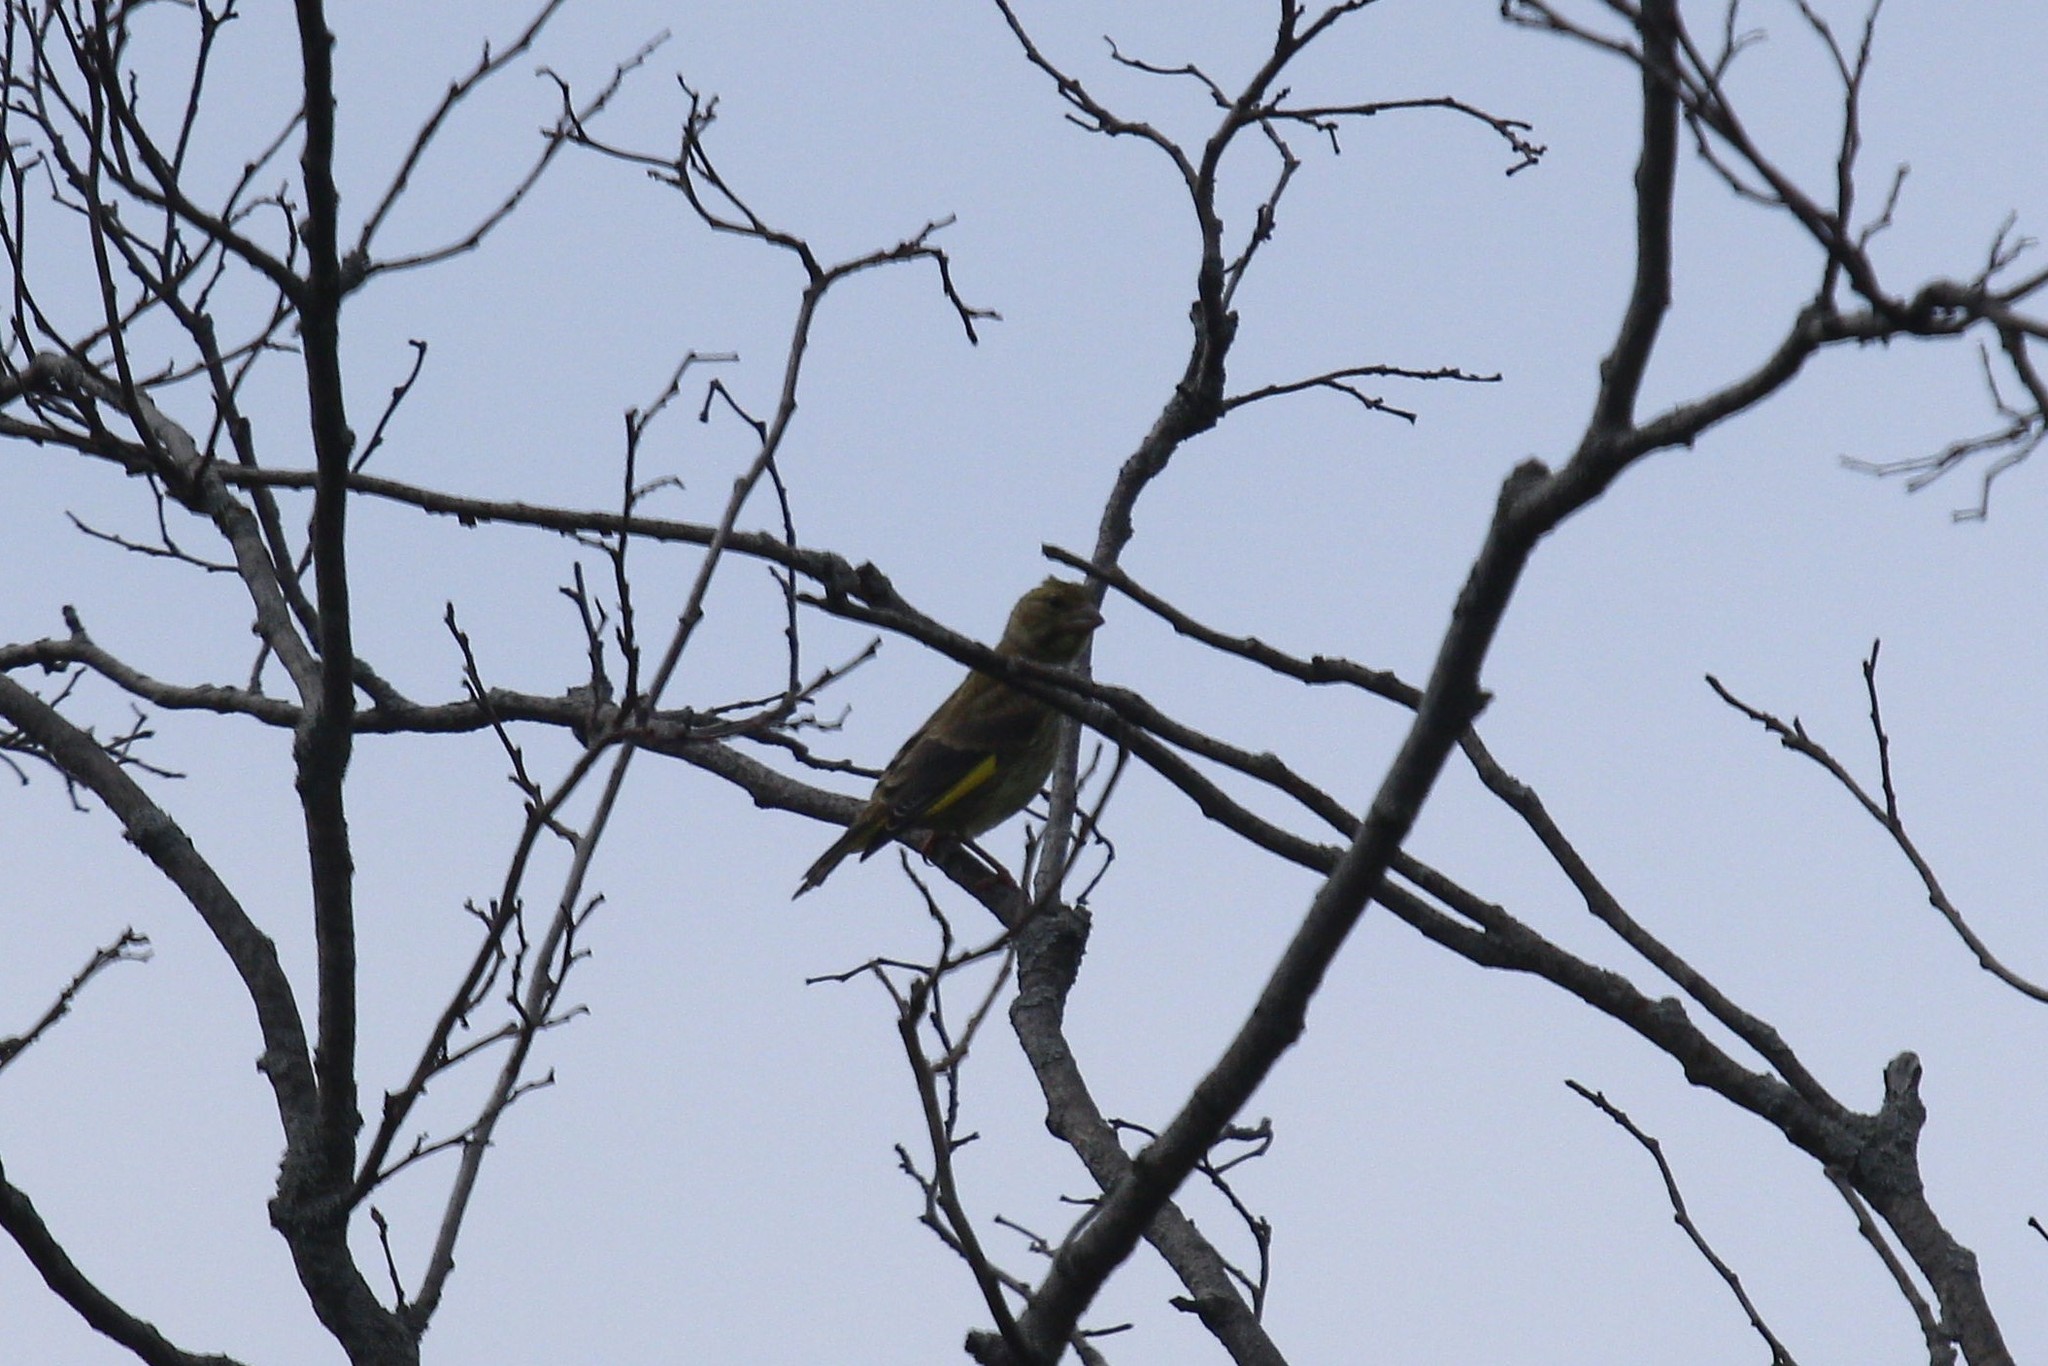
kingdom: Plantae
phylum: Tracheophyta
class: Liliopsida
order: Poales
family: Poaceae
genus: Chloris
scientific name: Chloris chloris
